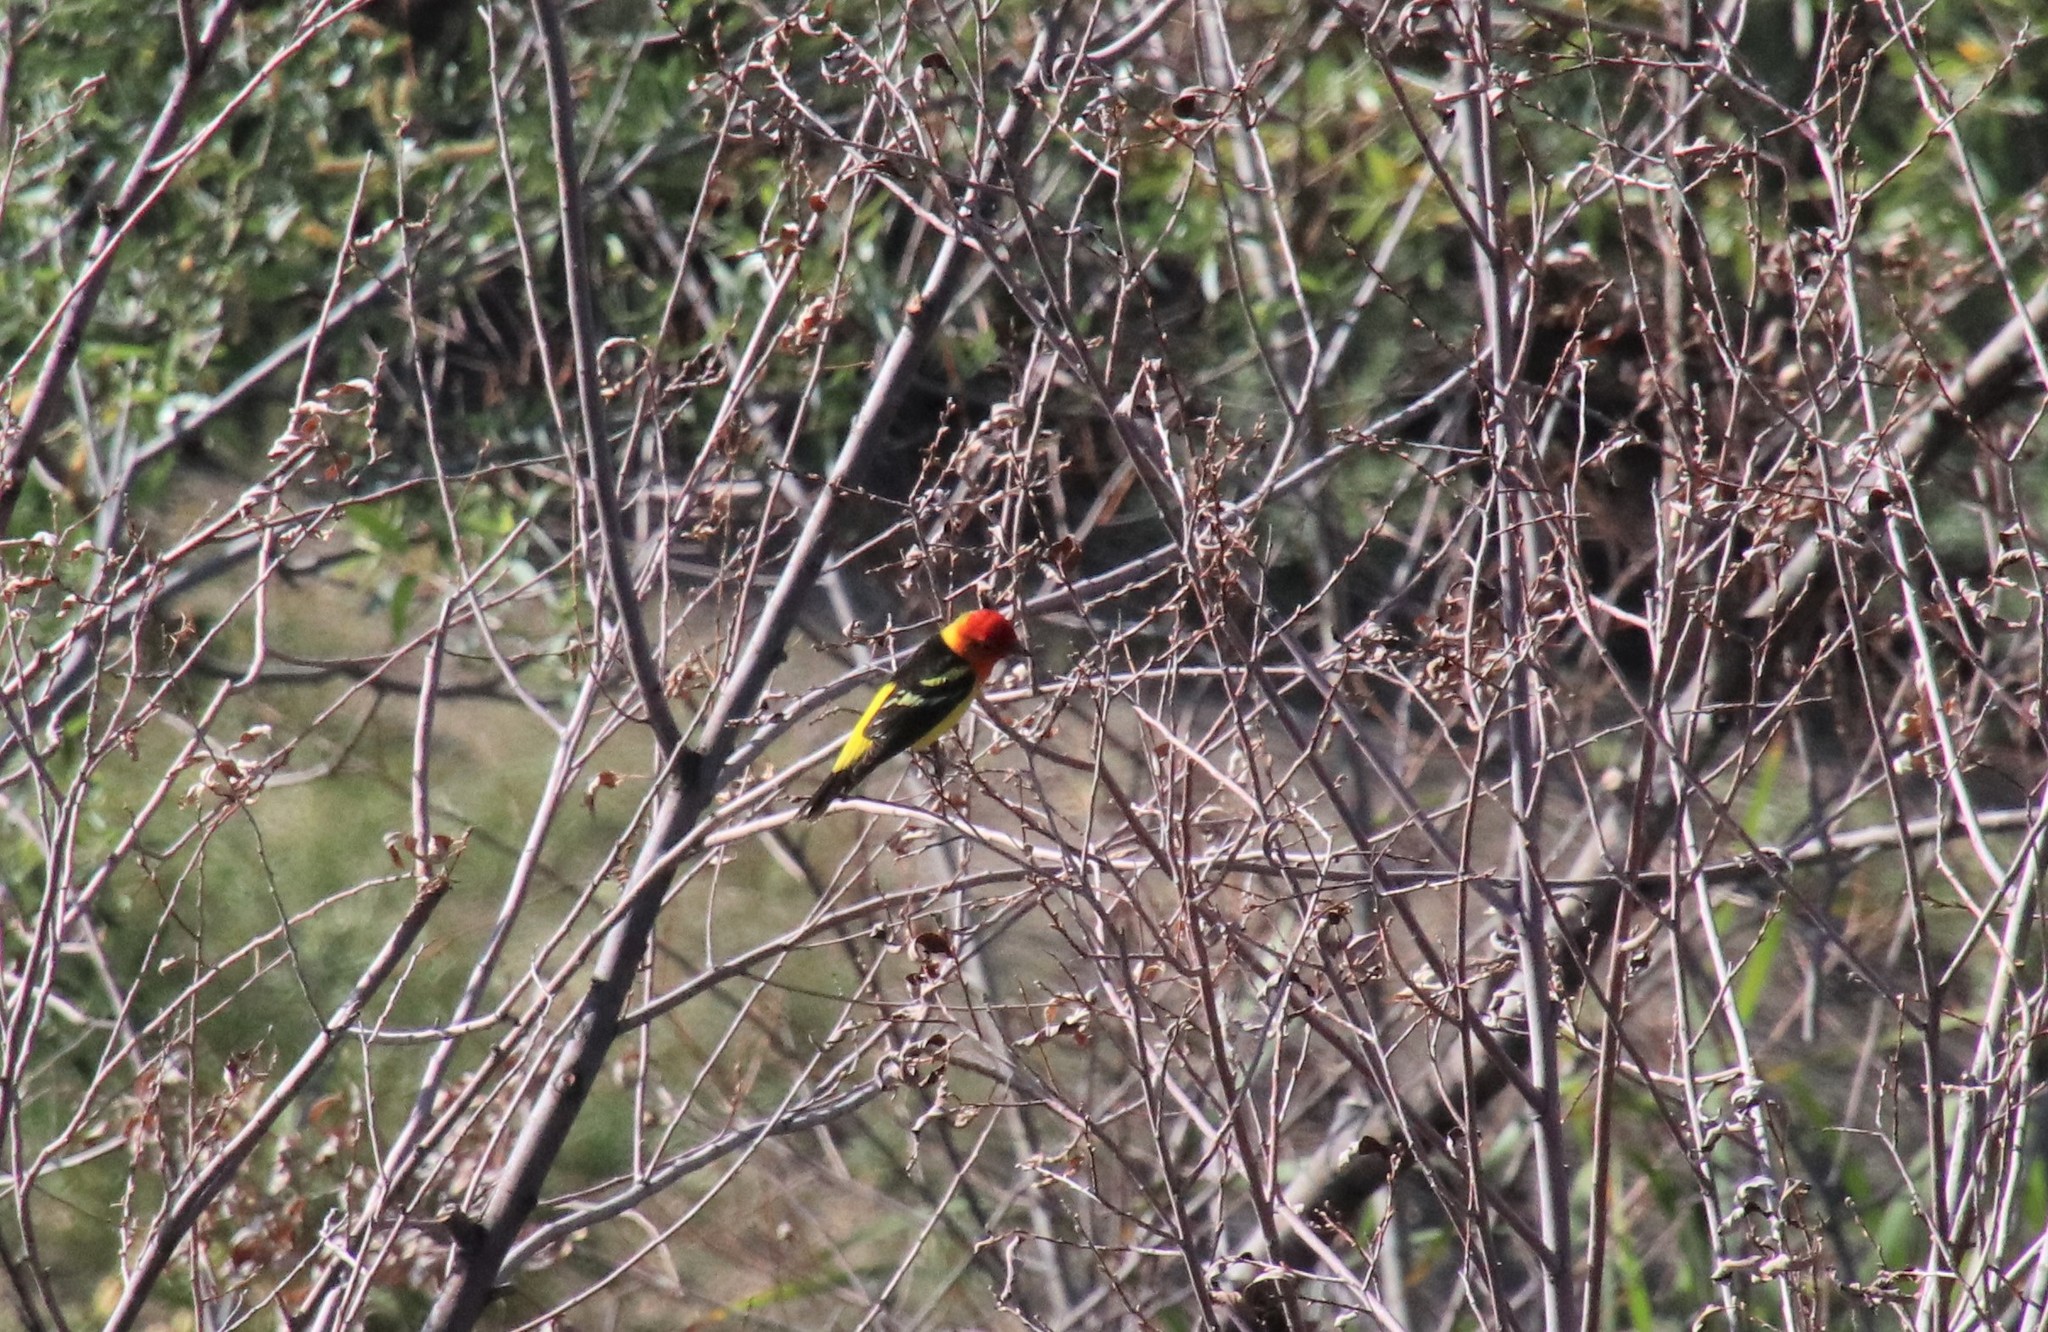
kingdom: Animalia
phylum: Chordata
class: Aves
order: Passeriformes
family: Cardinalidae
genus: Piranga
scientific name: Piranga ludoviciana
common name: Western tanager
